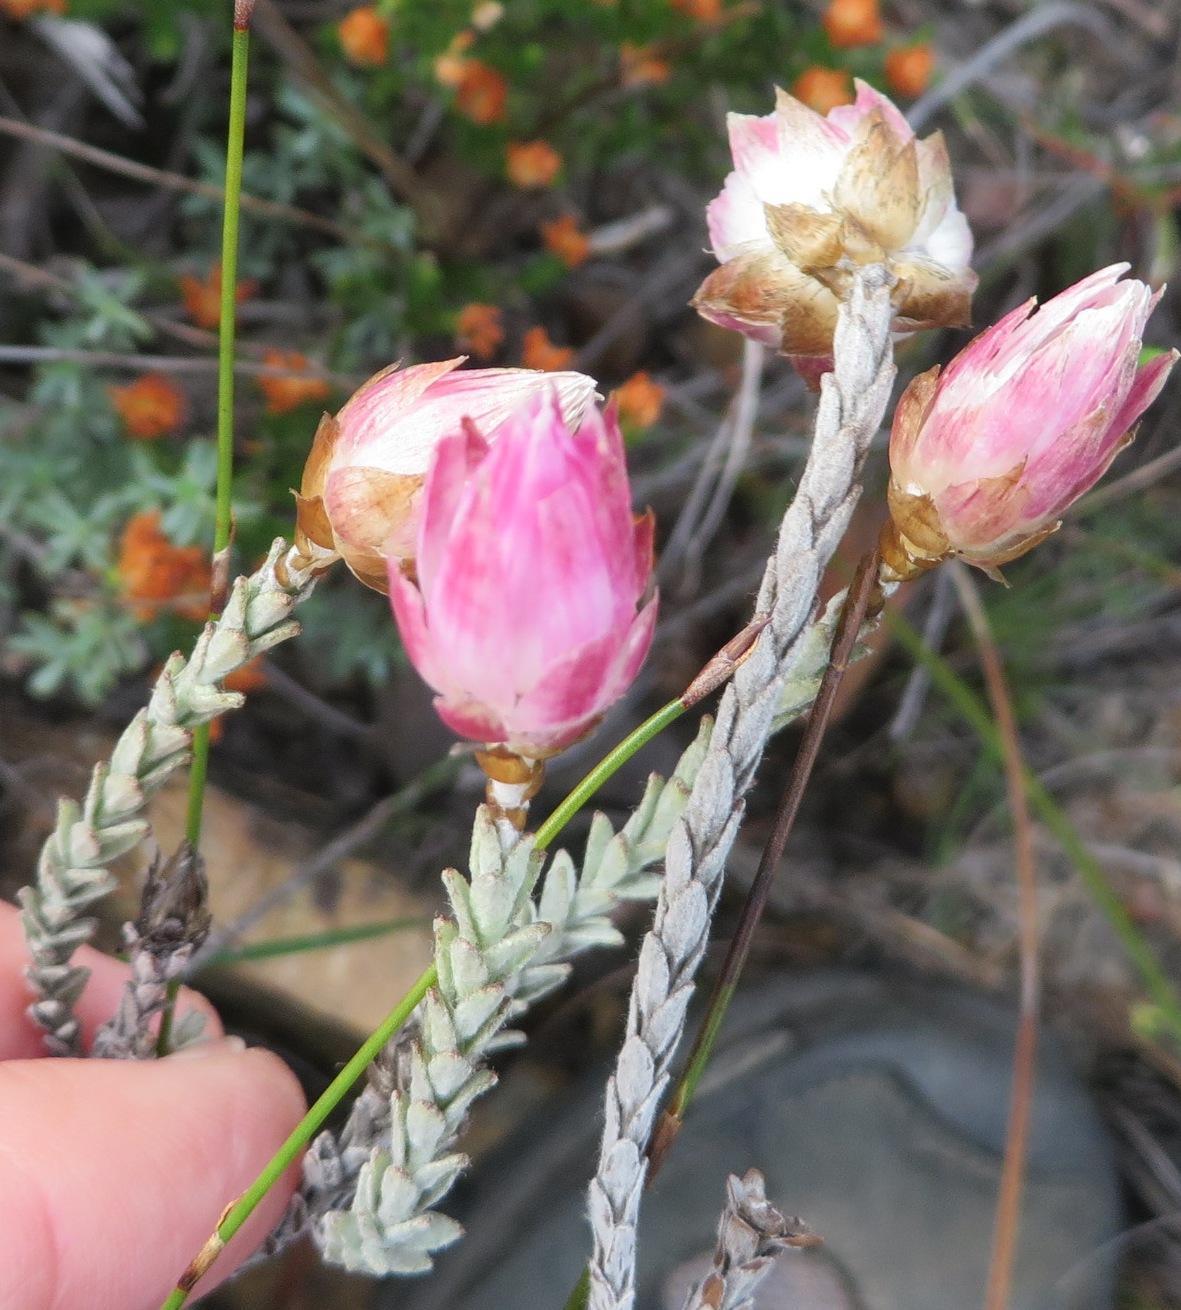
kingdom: Plantae
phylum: Tracheophyta
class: Magnoliopsida
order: Asterales
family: Asteraceae
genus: Syncarpha
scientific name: Syncarpha canescens
